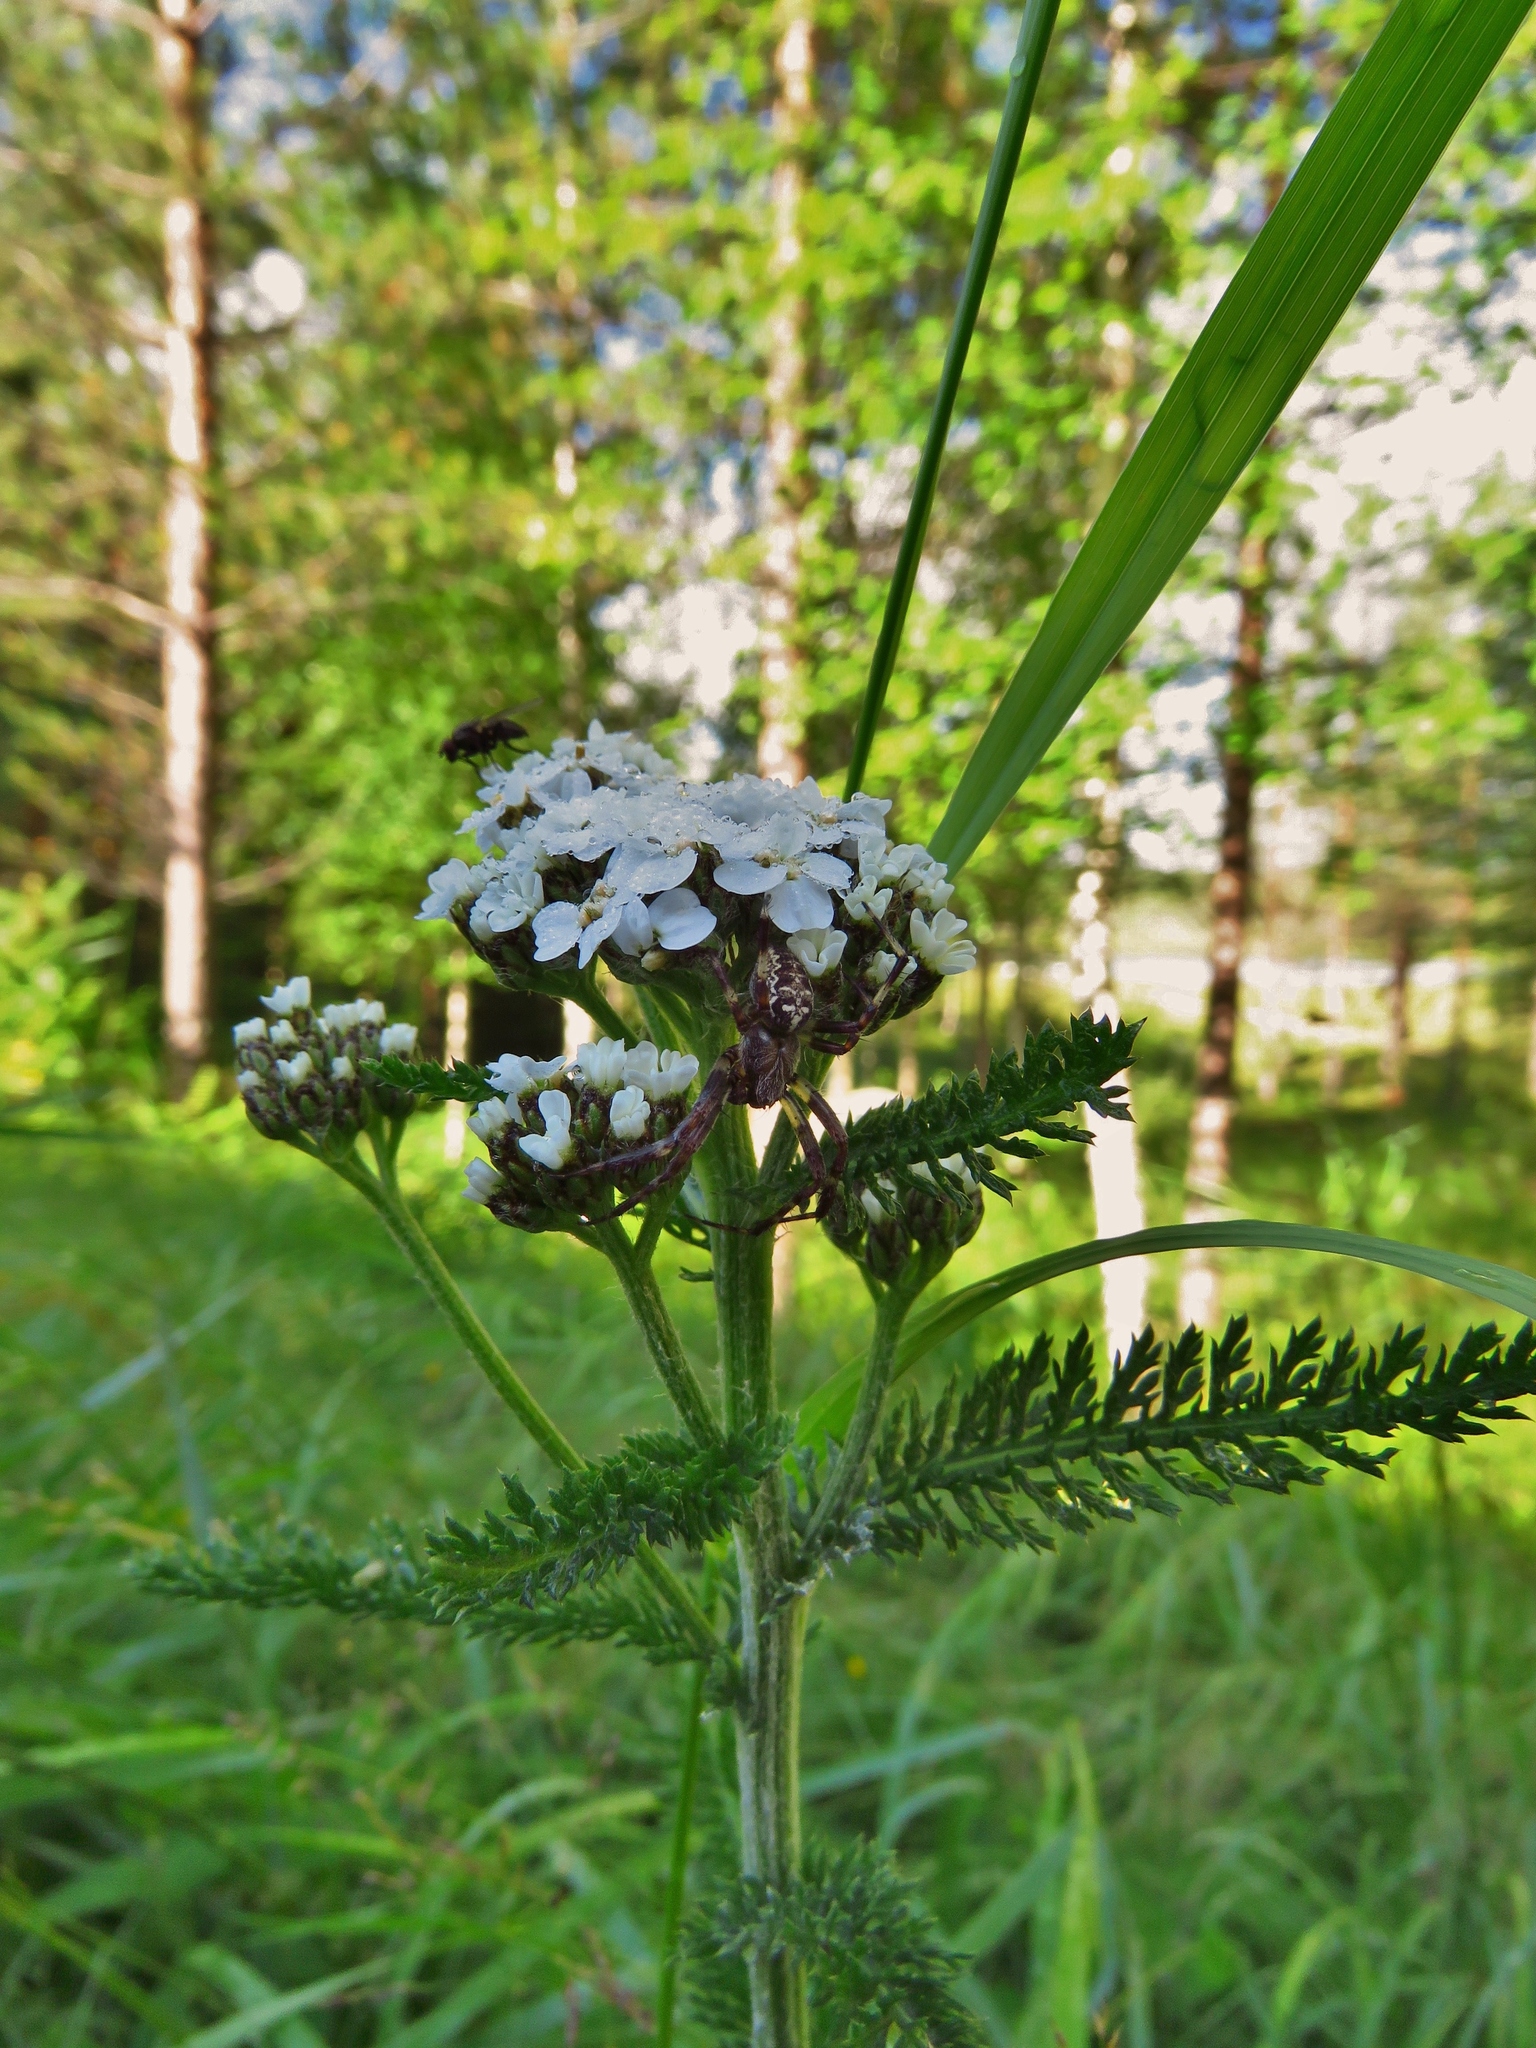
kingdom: Plantae
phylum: Tracheophyta
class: Magnoliopsida
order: Asterales
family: Asteraceae
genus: Achillea
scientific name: Achillea millefolium
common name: Yarrow
